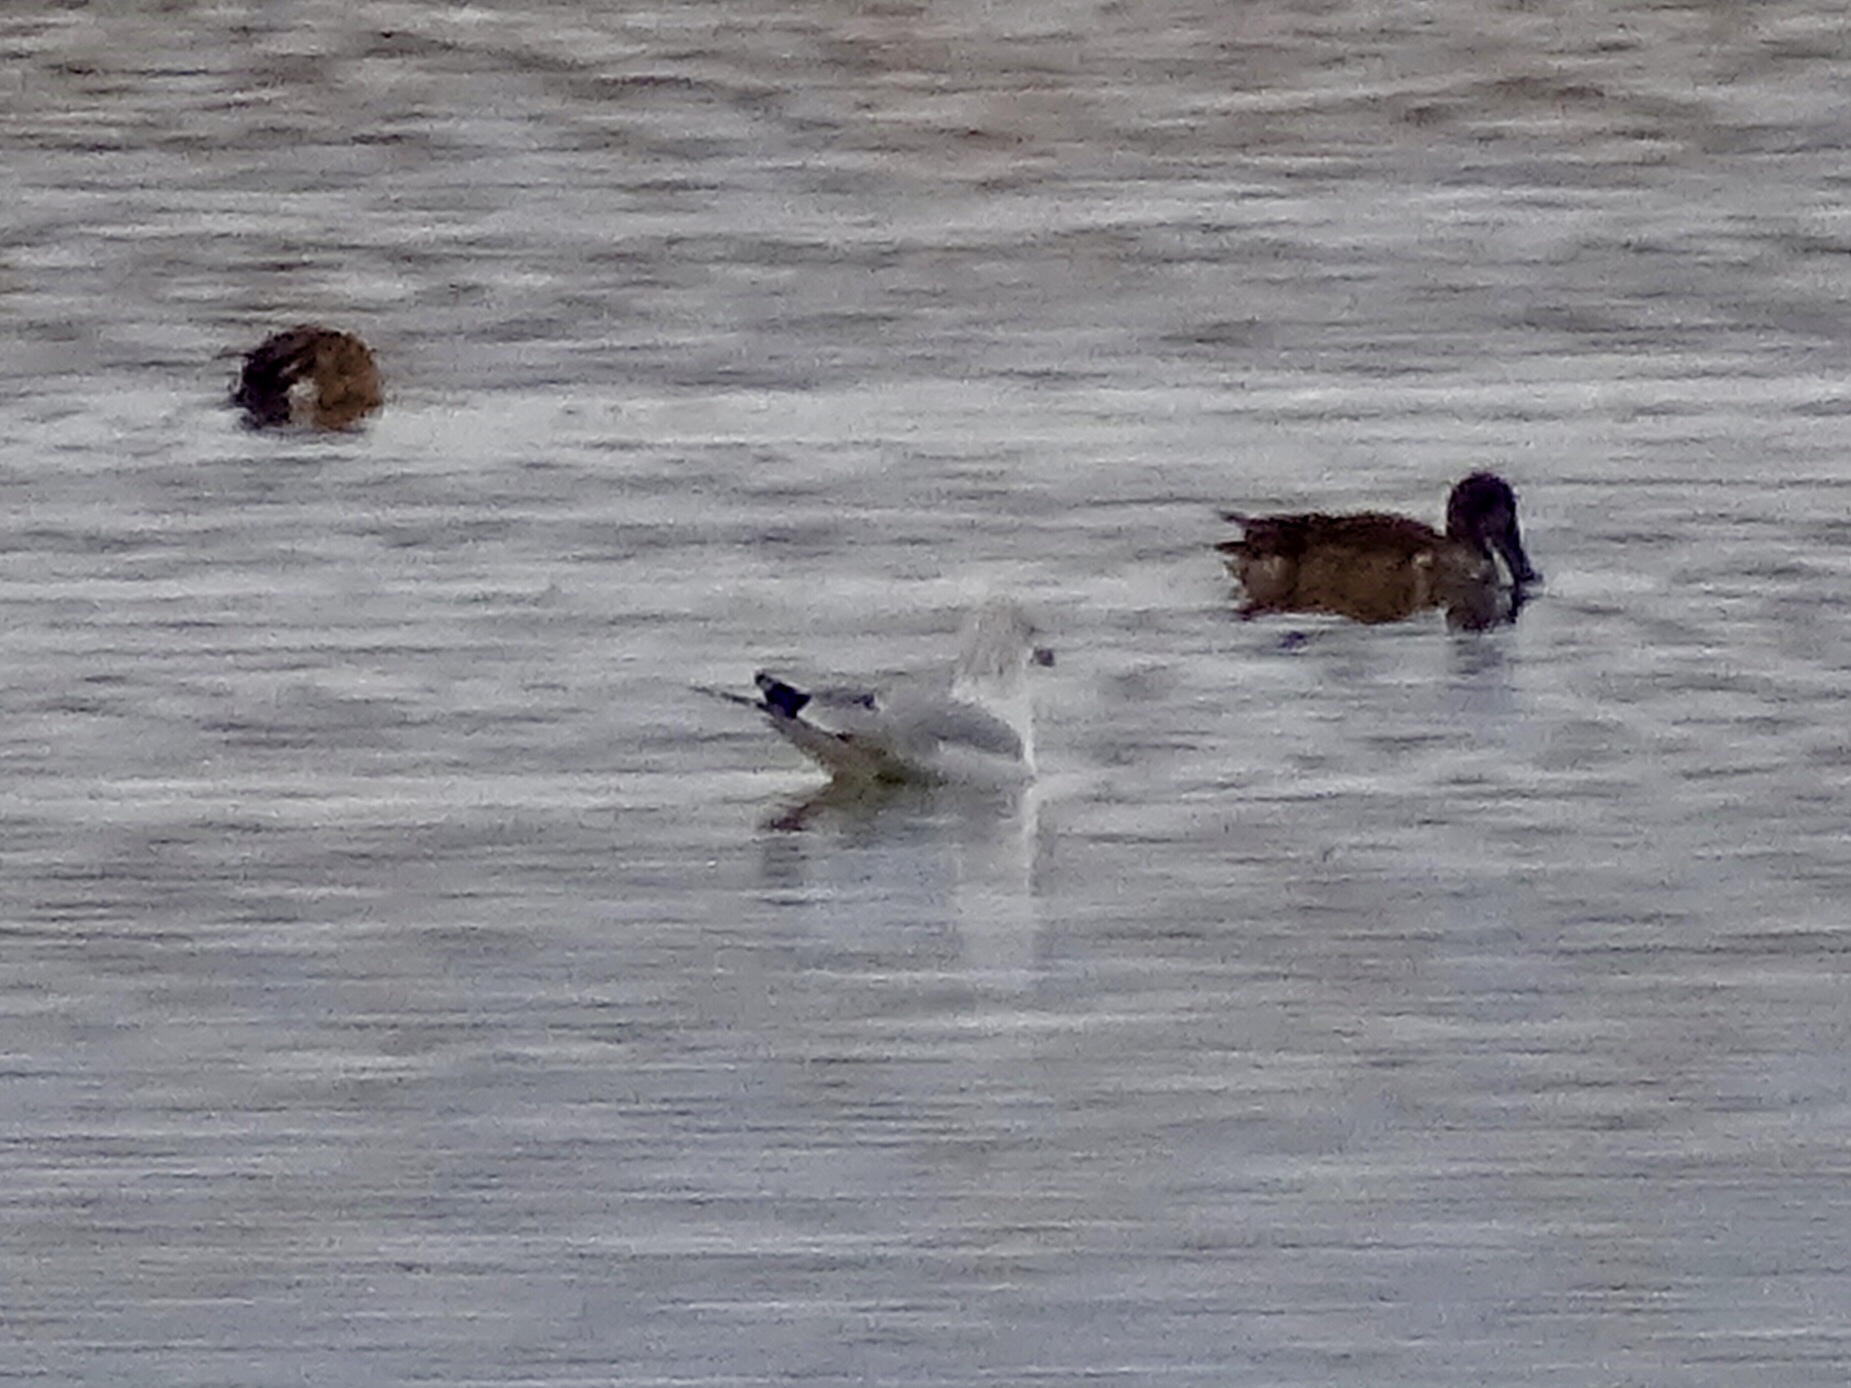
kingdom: Animalia
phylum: Chordata
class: Aves
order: Charadriiformes
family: Laridae
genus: Larus
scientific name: Larus delawarensis
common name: Ring-billed gull
